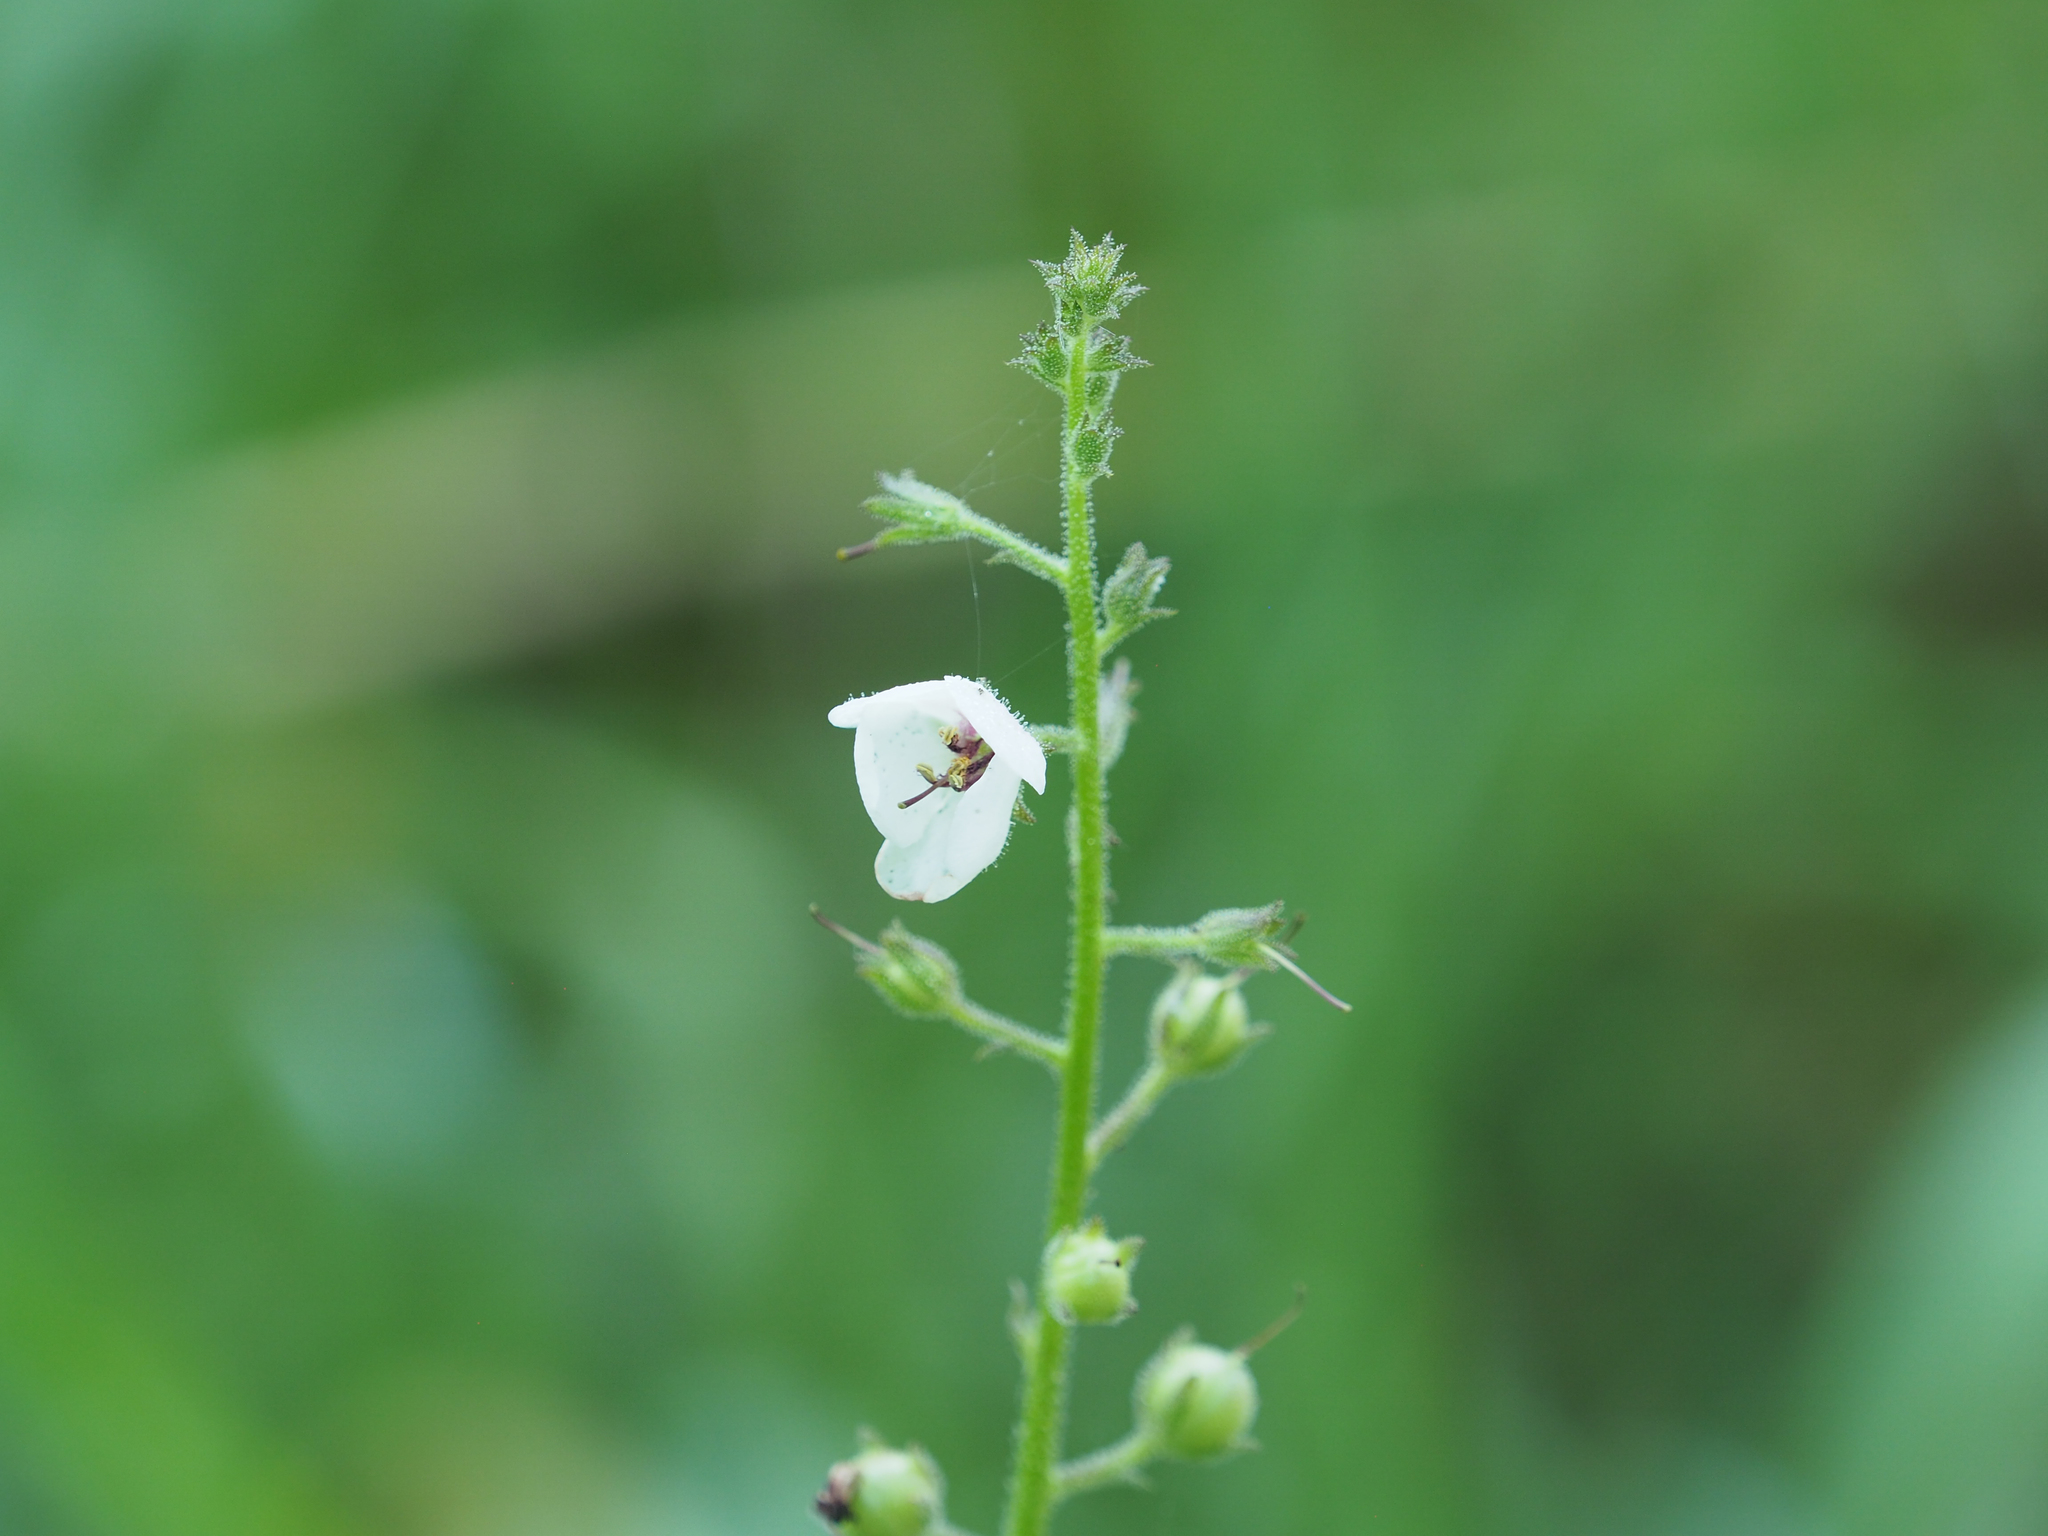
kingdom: Plantae
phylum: Tracheophyta
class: Magnoliopsida
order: Lamiales
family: Scrophulariaceae
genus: Verbascum
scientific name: Verbascum blattaria
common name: Moth mullein
